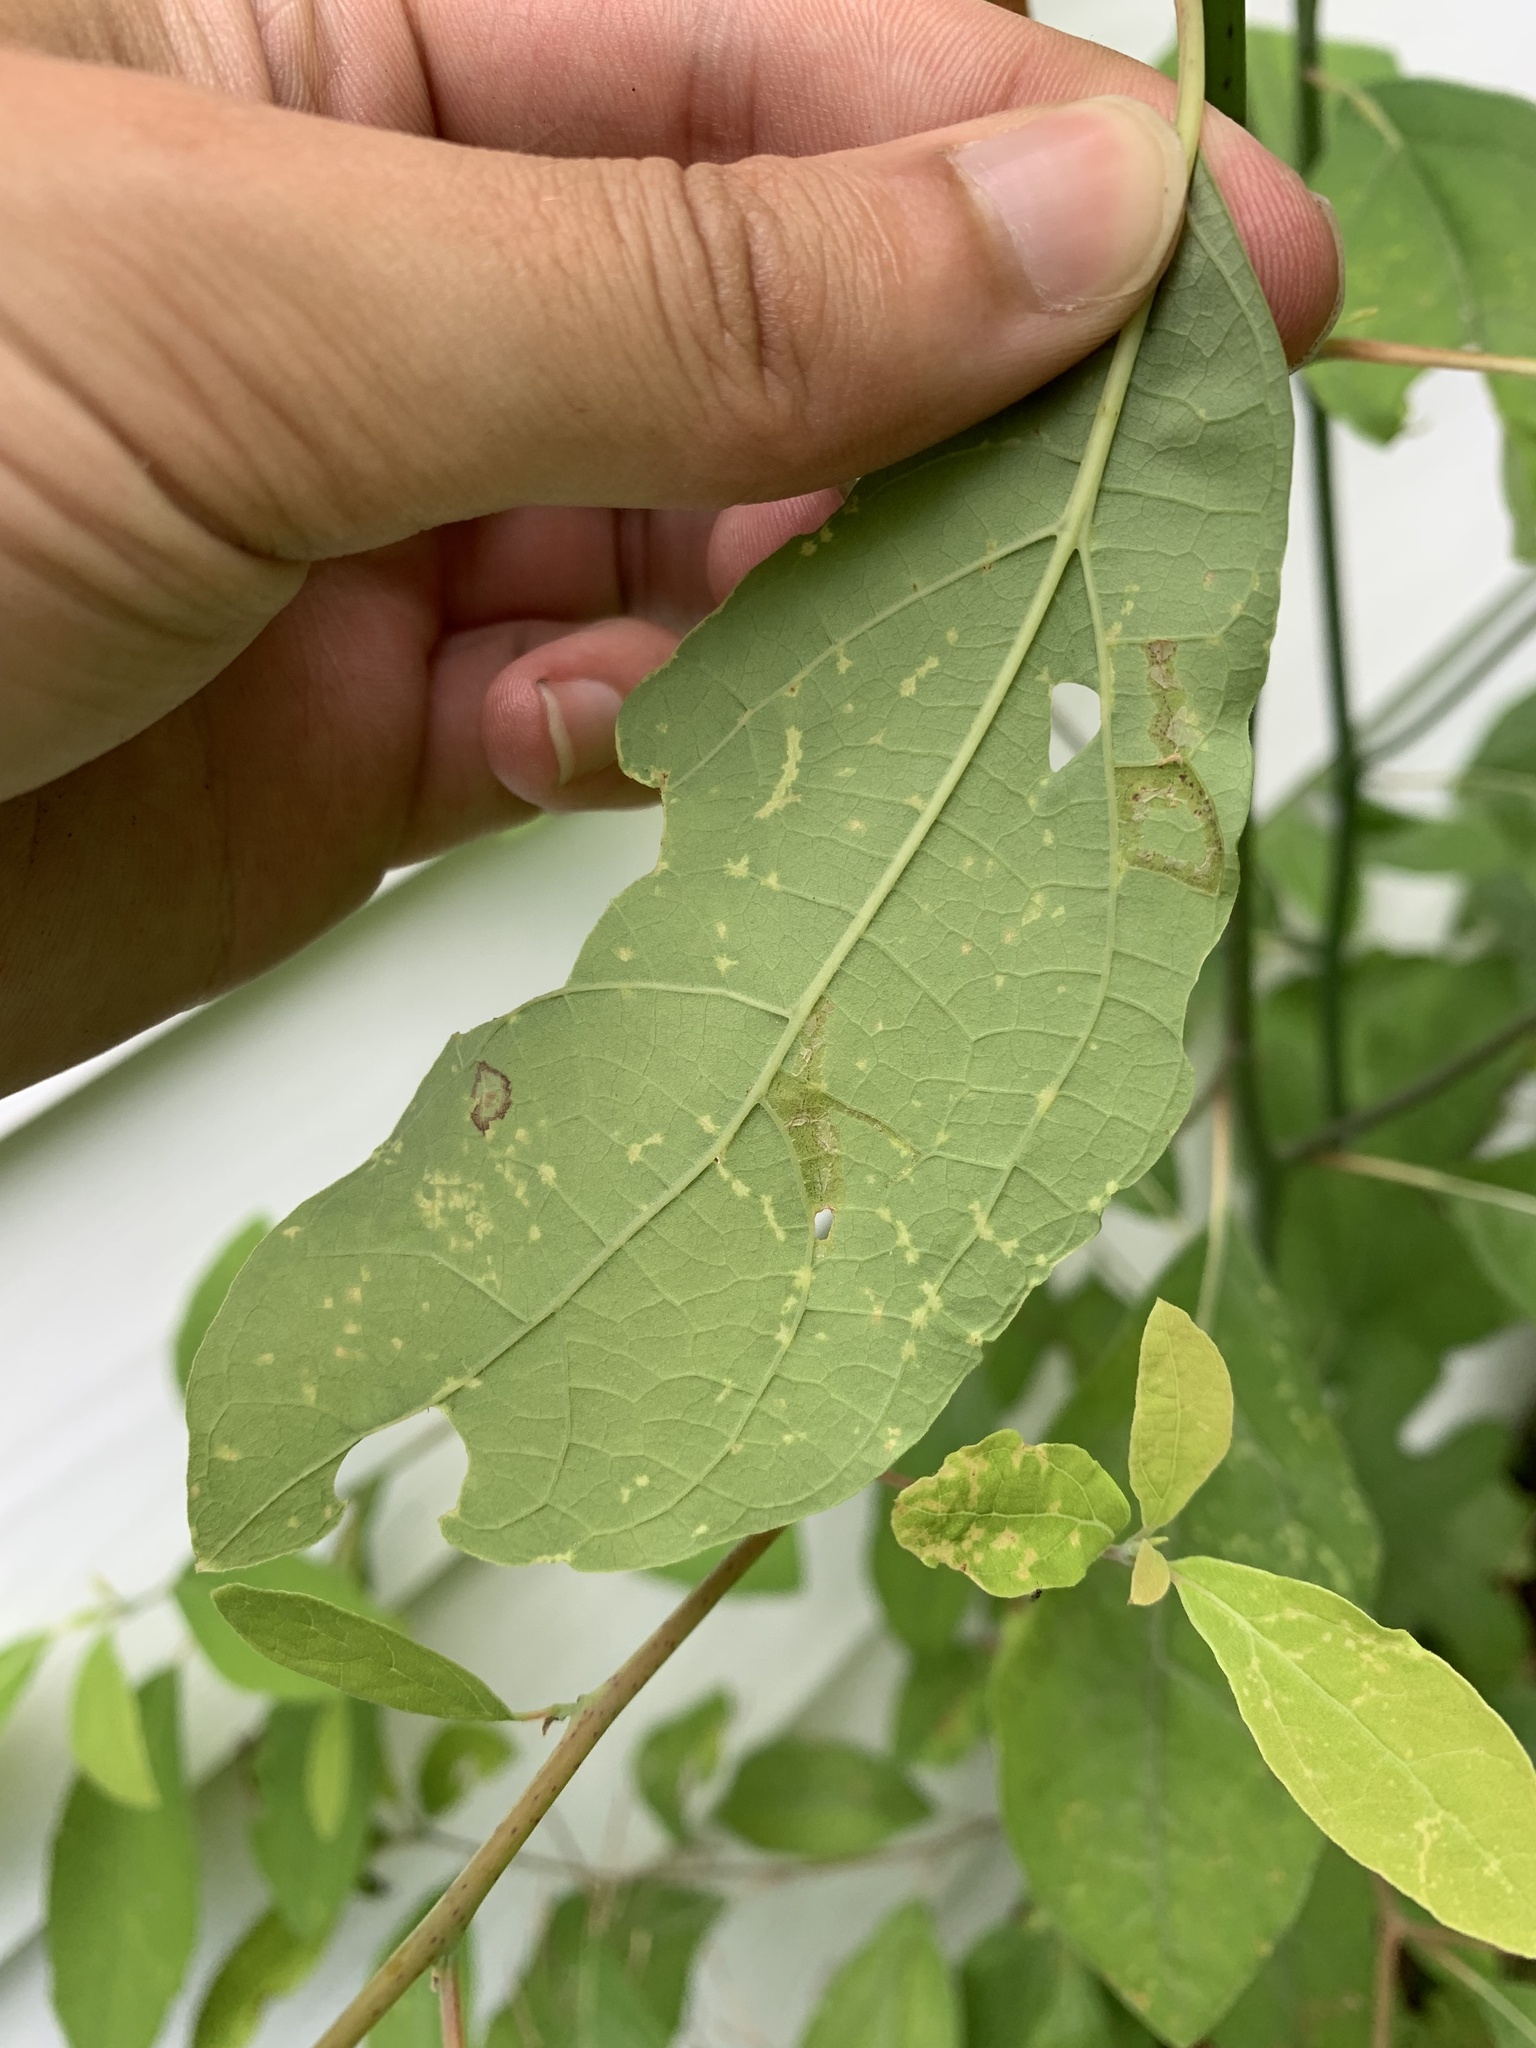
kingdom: Animalia
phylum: Arthropoda
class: Insecta
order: Lepidoptera
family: Gracillariidae
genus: Caloptilia
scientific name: Caloptilia sassafrasella
